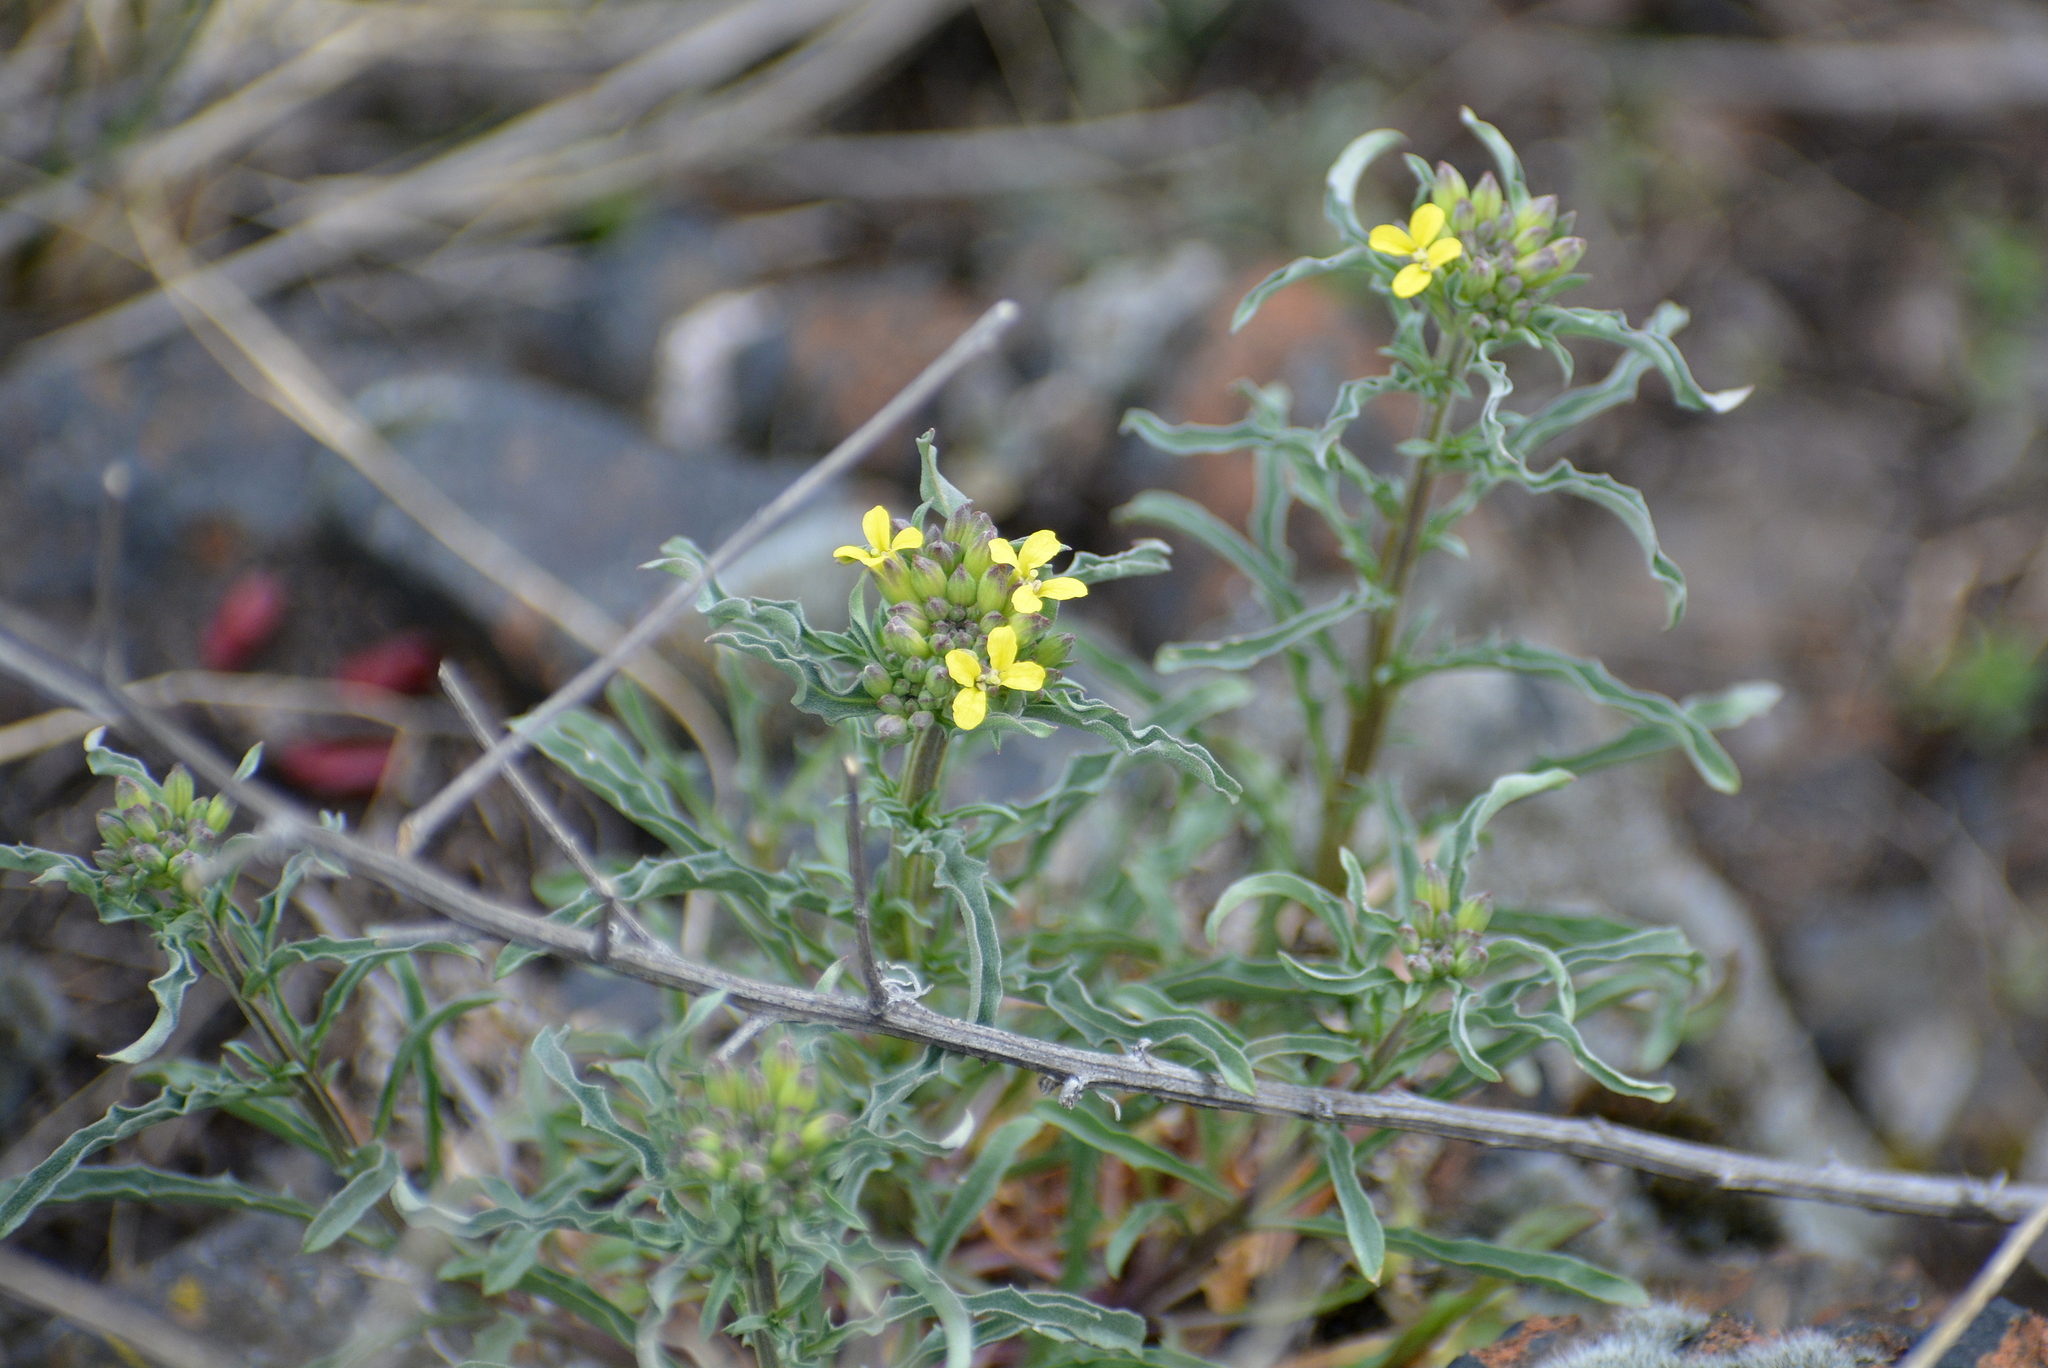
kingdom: Plantae
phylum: Tracheophyta
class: Magnoliopsida
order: Brassicales
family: Brassicaceae
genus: Erysimum
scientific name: Erysimum crepidifolium
